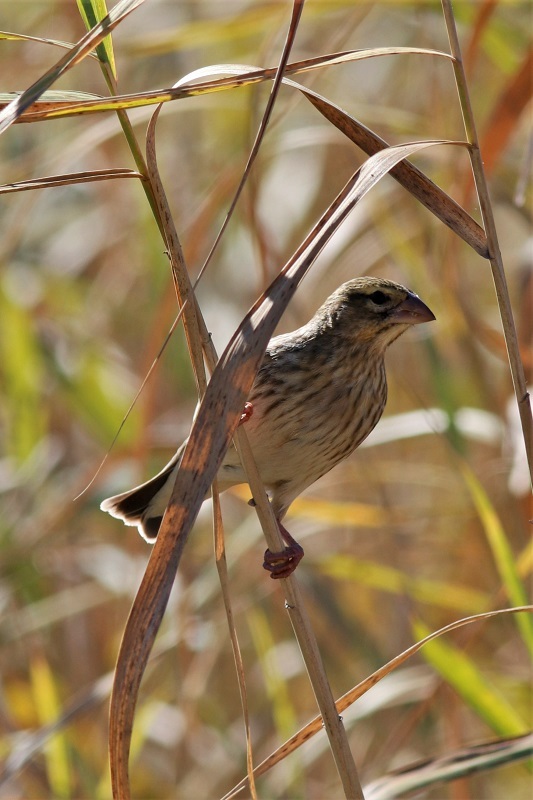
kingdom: Animalia
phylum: Chordata
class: Aves
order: Passeriformes
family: Ploceidae
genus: Euplectes
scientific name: Euplectes orix
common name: Southern red bishop
